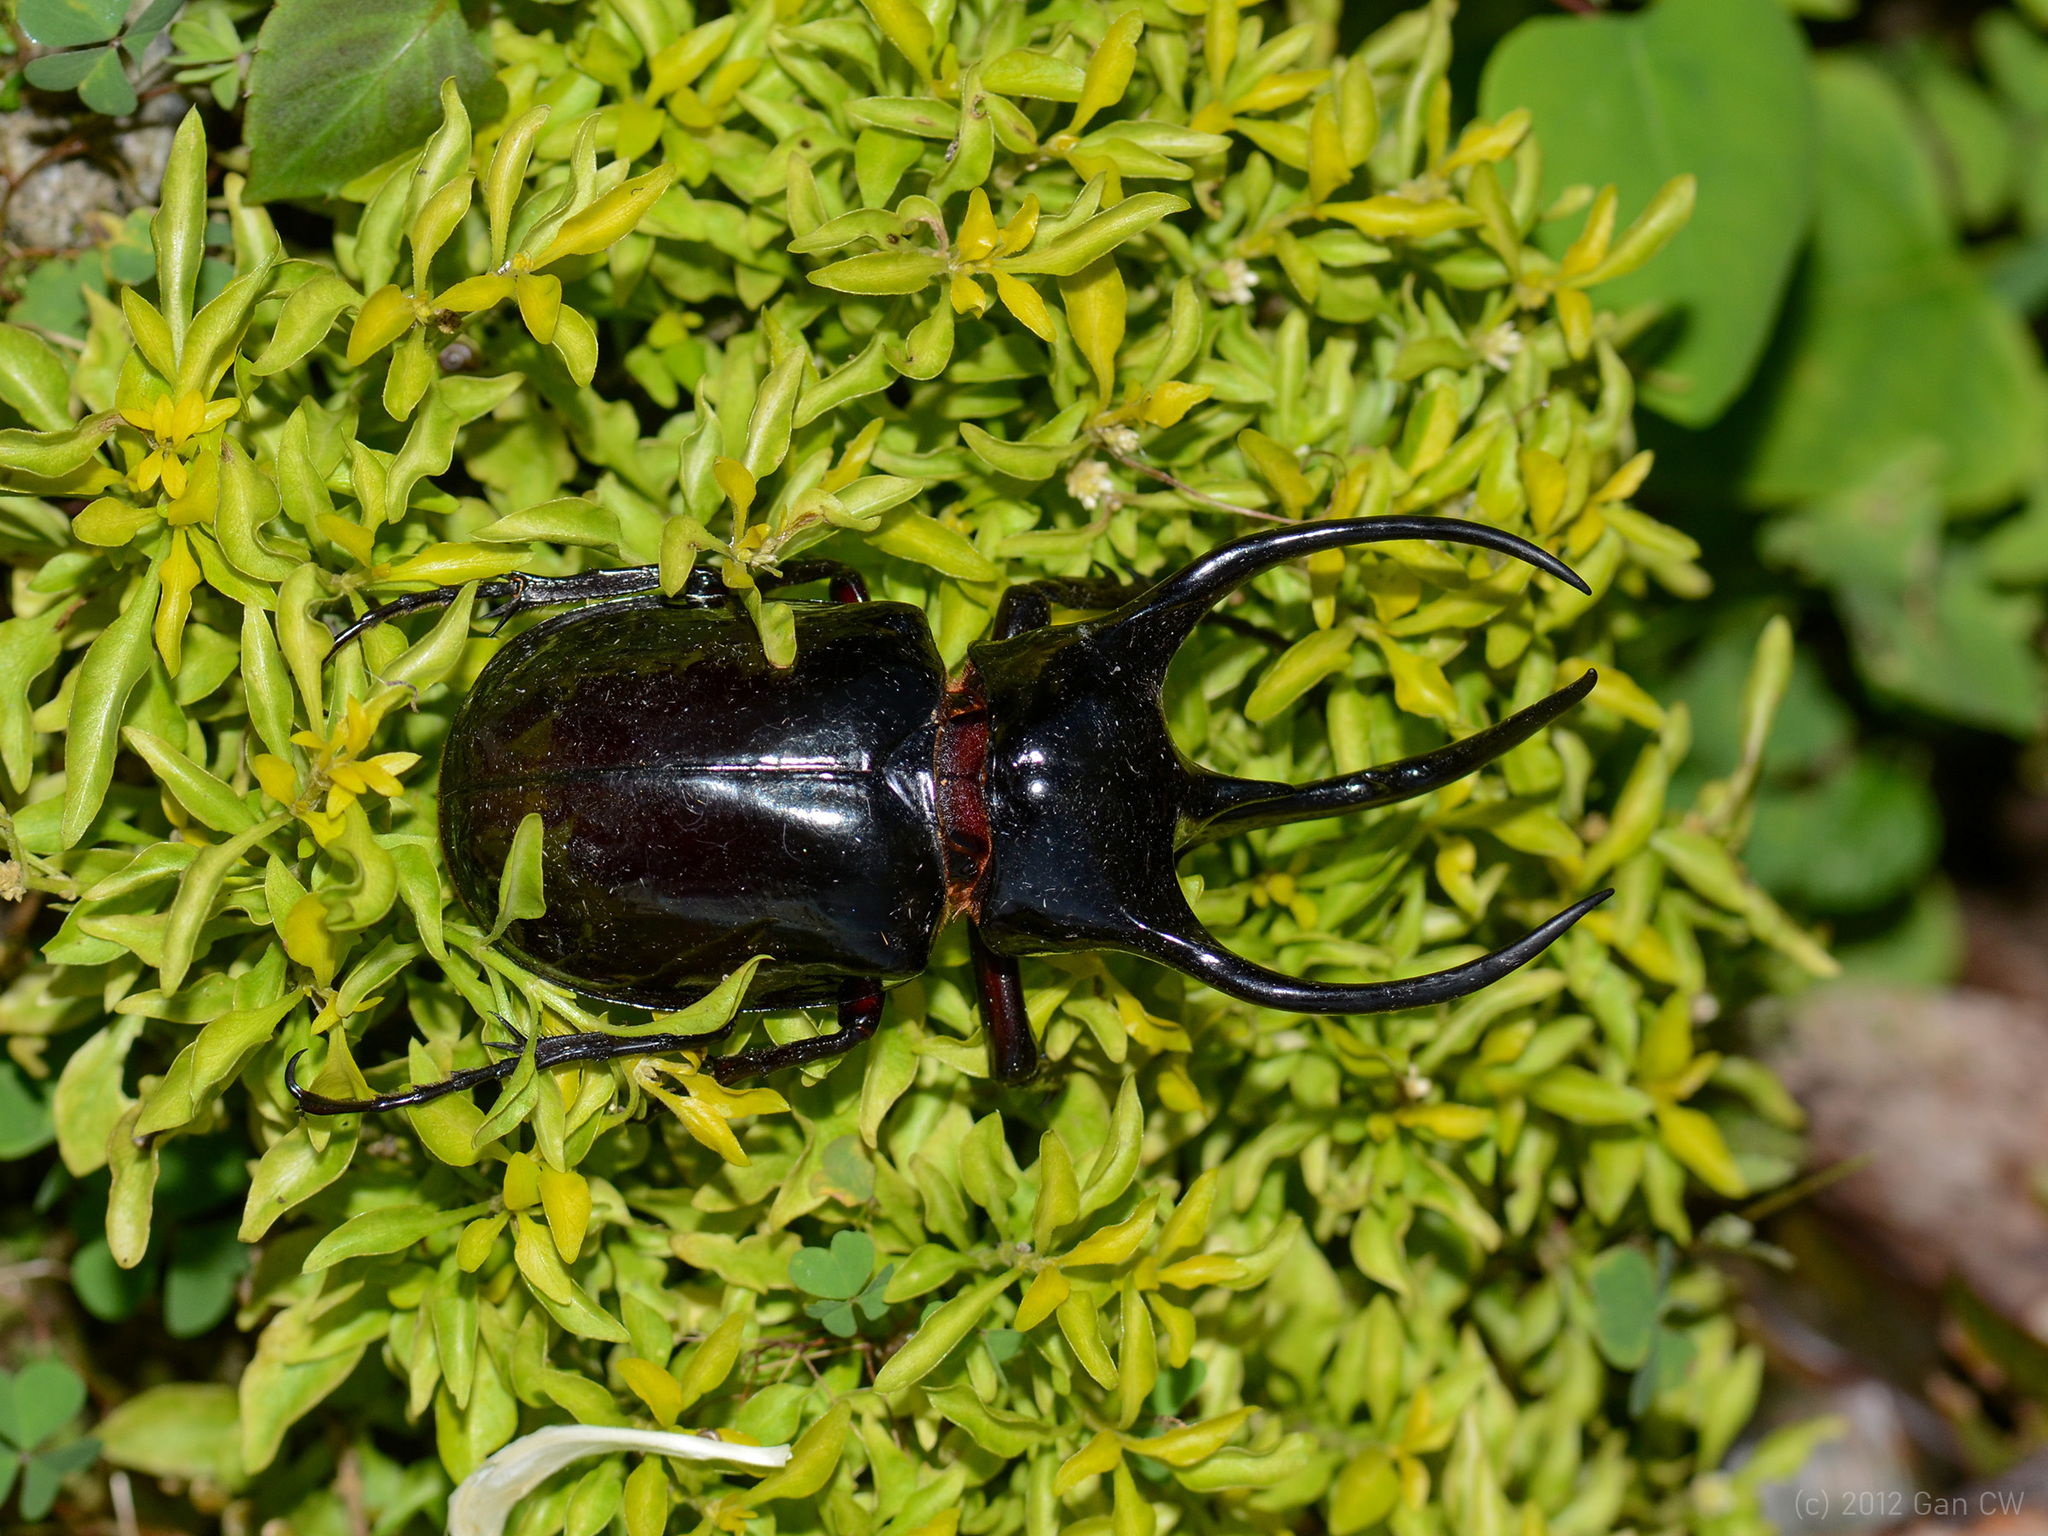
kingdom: Animalia
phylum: Arthropoda
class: Insecta
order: Coleoptera
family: Scarabaeidae
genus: Chalcosoma
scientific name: Chalcosoma chiron
